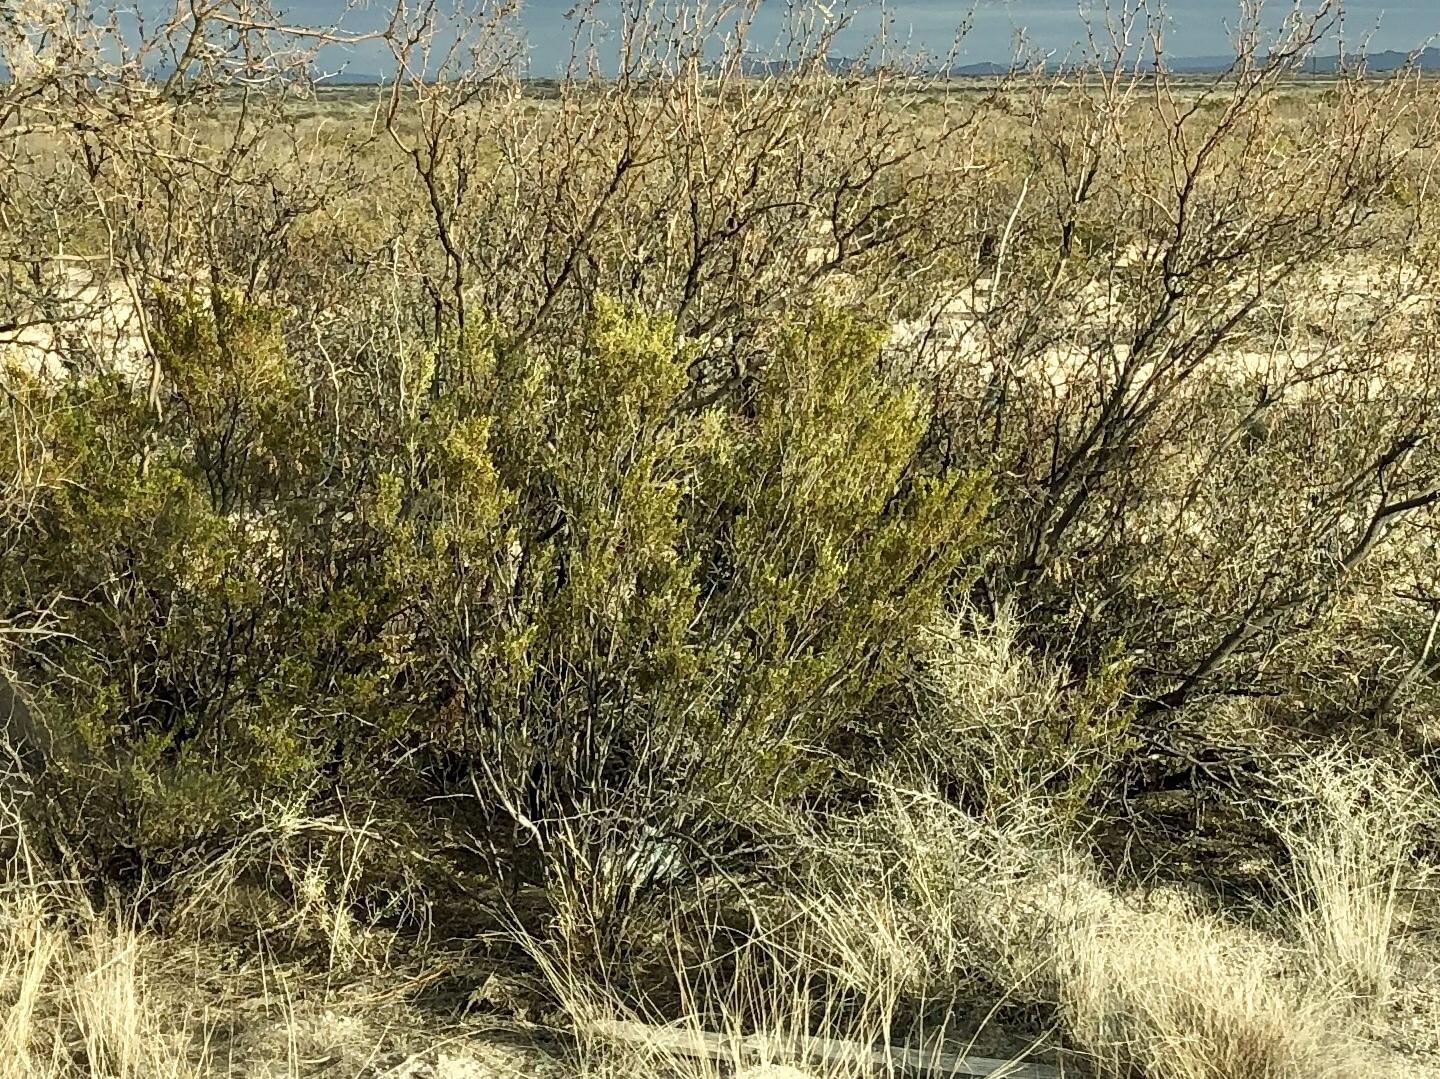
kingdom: Plantae
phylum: Tracheophyta
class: Magnoliopsida
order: Zygophyllales
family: Zygophyllaceae
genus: Larrea
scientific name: Larrea tridentata
